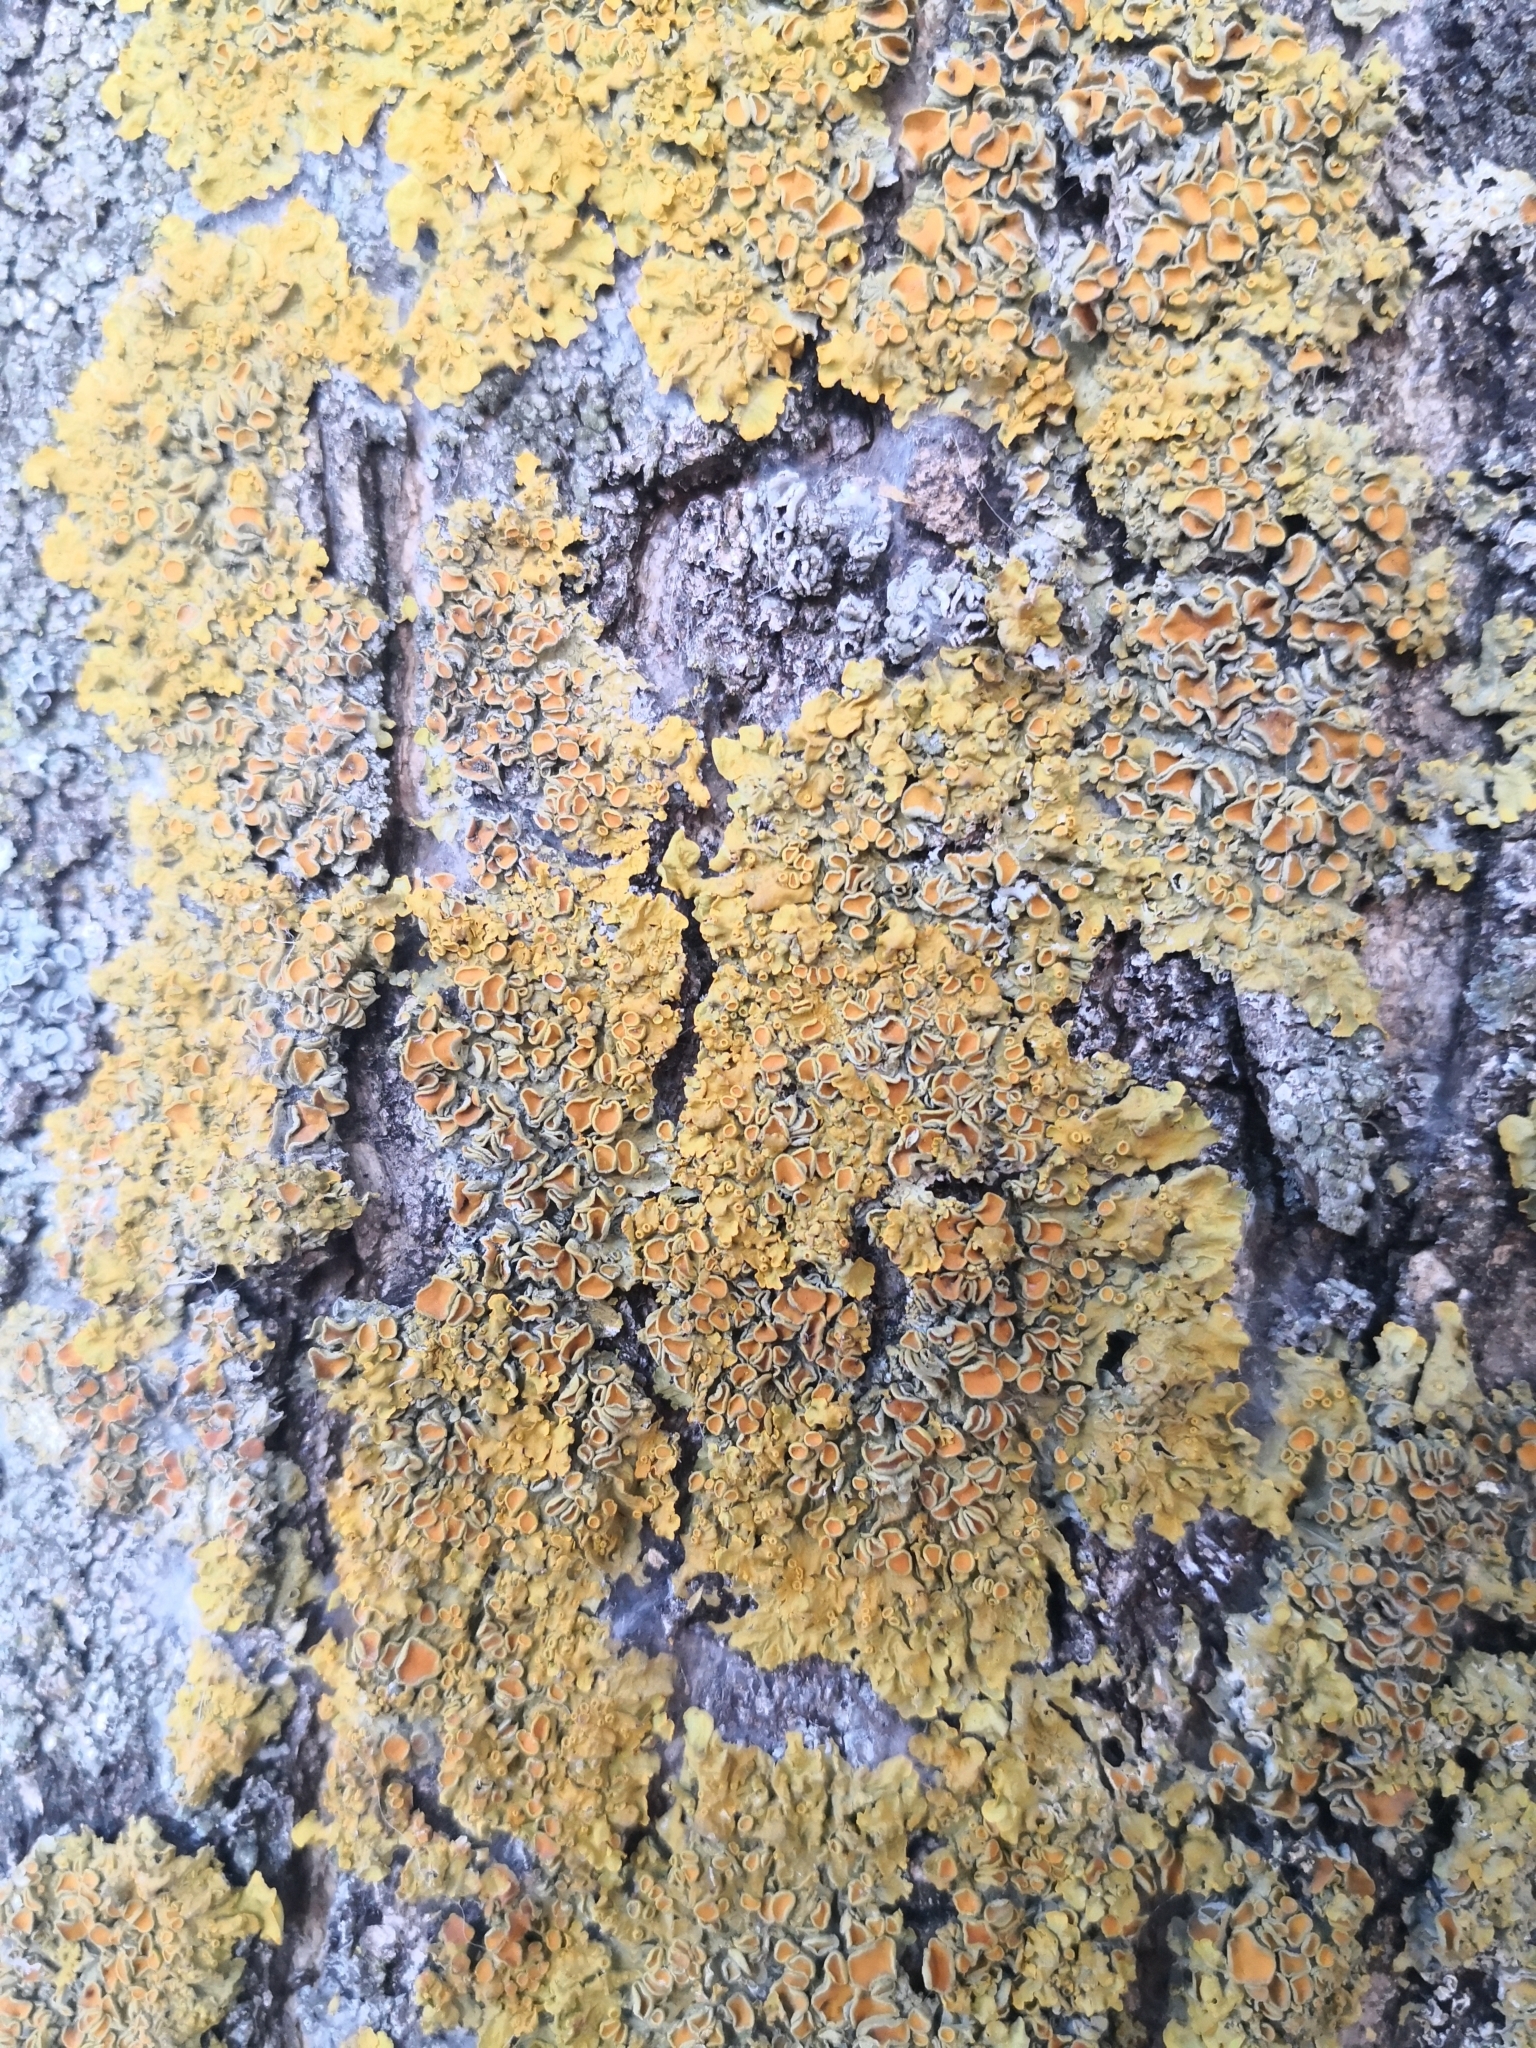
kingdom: Fungi
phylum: Ascomycota
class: Lecanoromycetes
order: Teloschistales
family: Teloschistaceae
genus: Xanthoria
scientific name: Xanthoria parietina
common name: Common orange lichen
